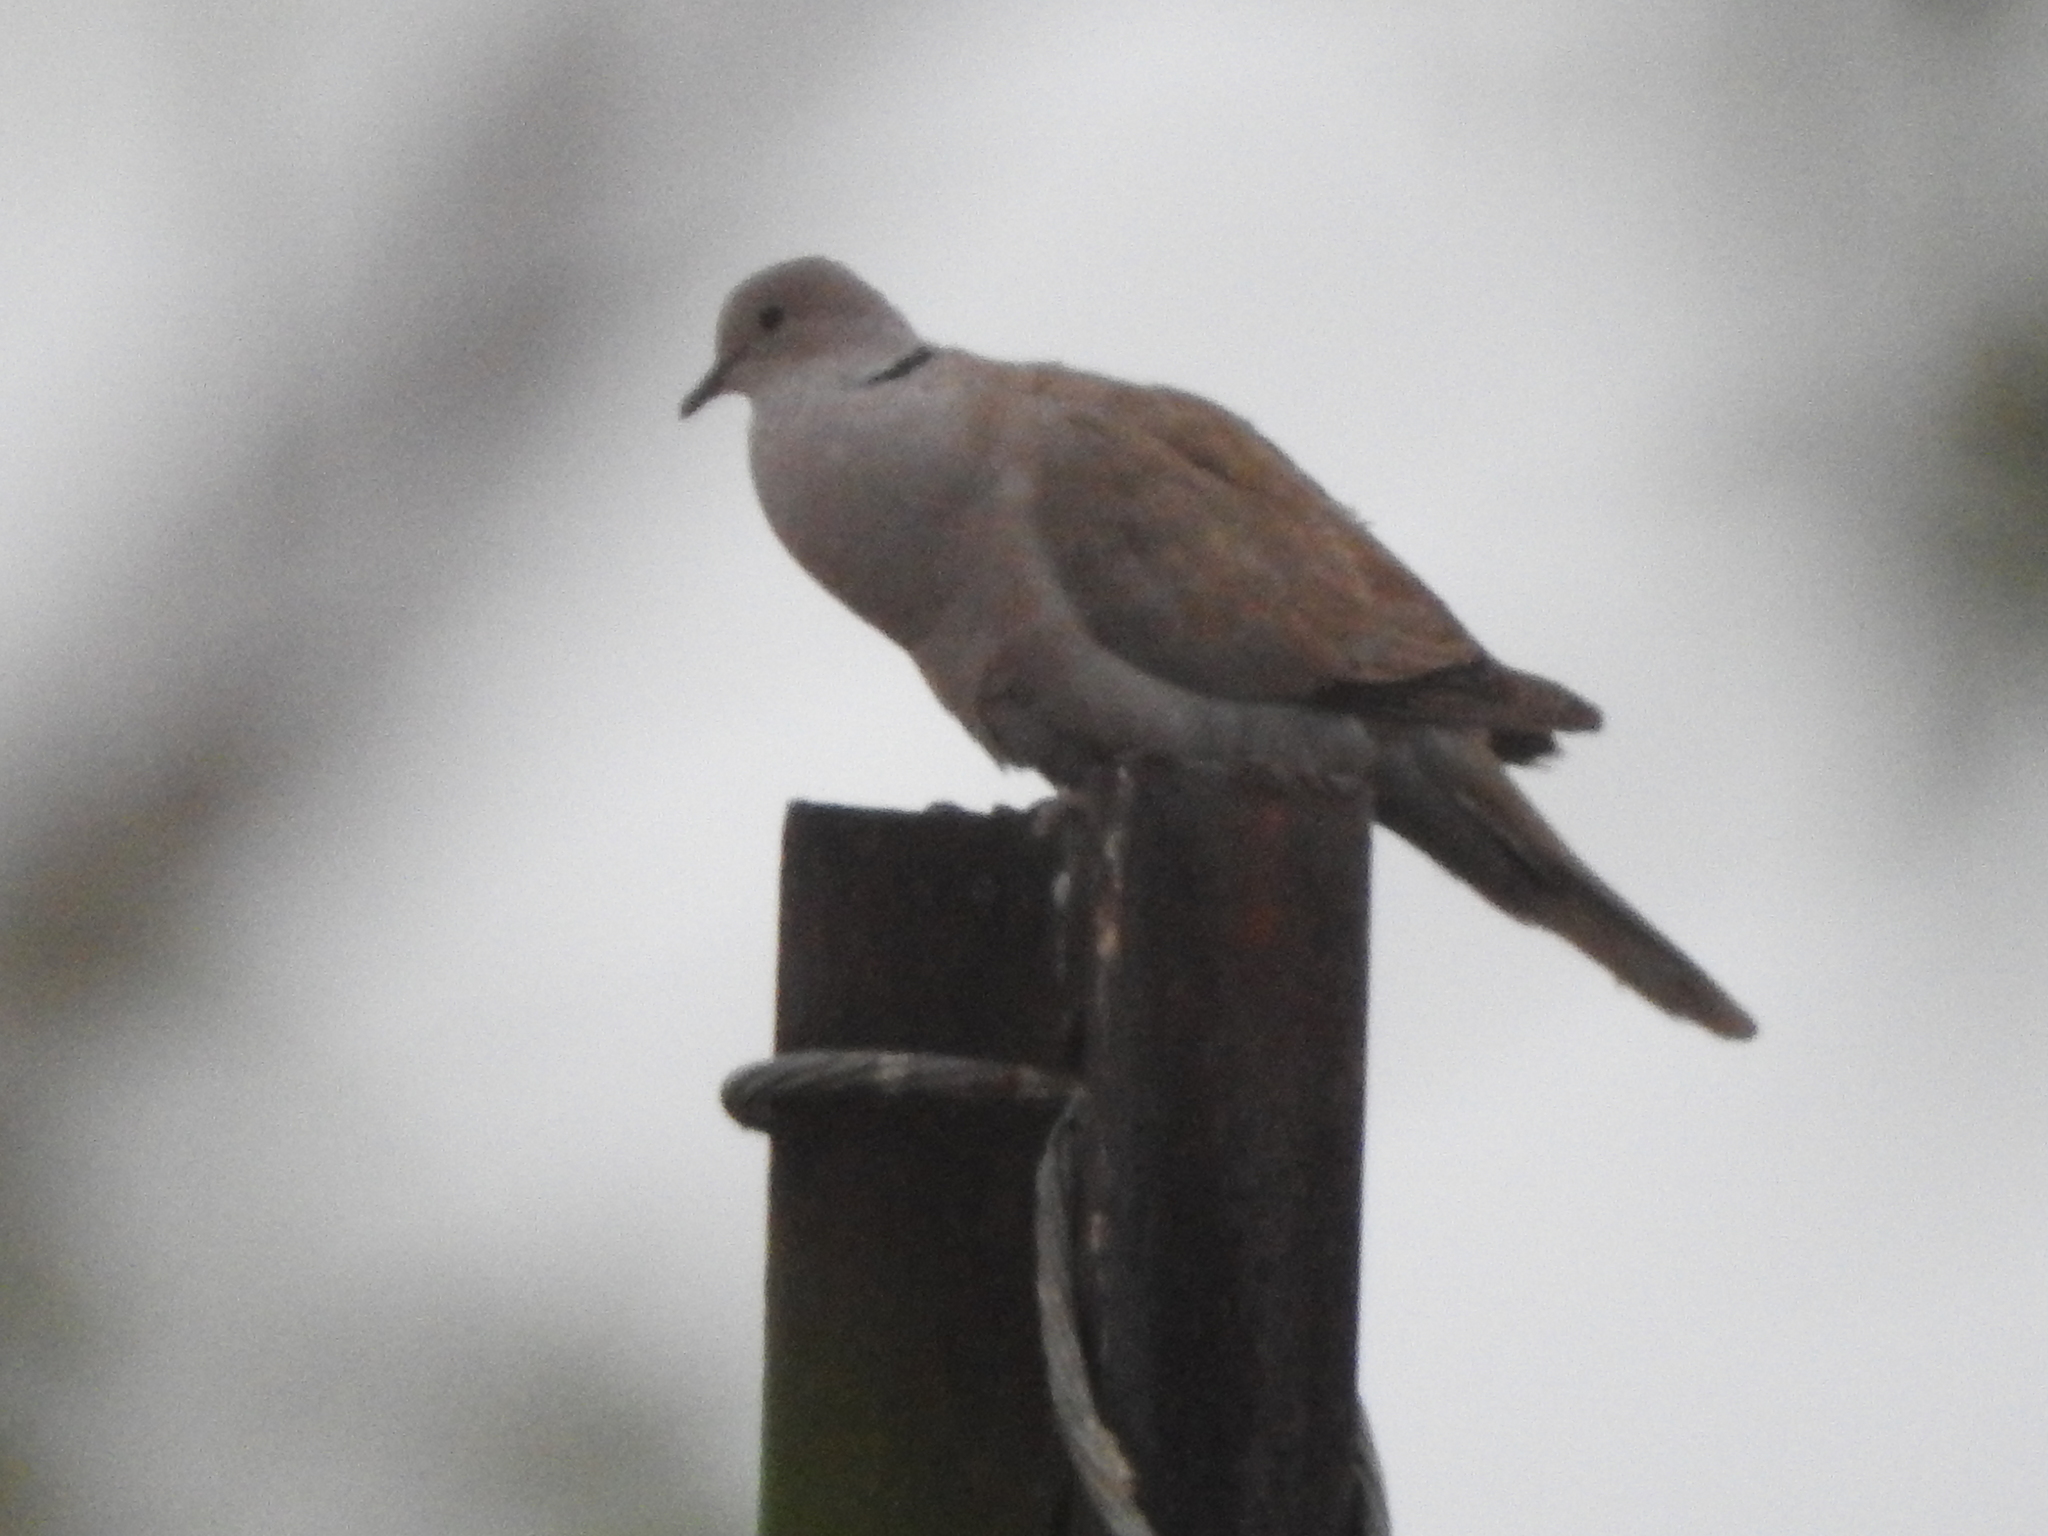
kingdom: Animalia
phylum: Chordata
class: Aves
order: Columbiformes
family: Columbidae
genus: Streptopelia
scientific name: Streptopelia decaocto
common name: Eurasian collared dove
